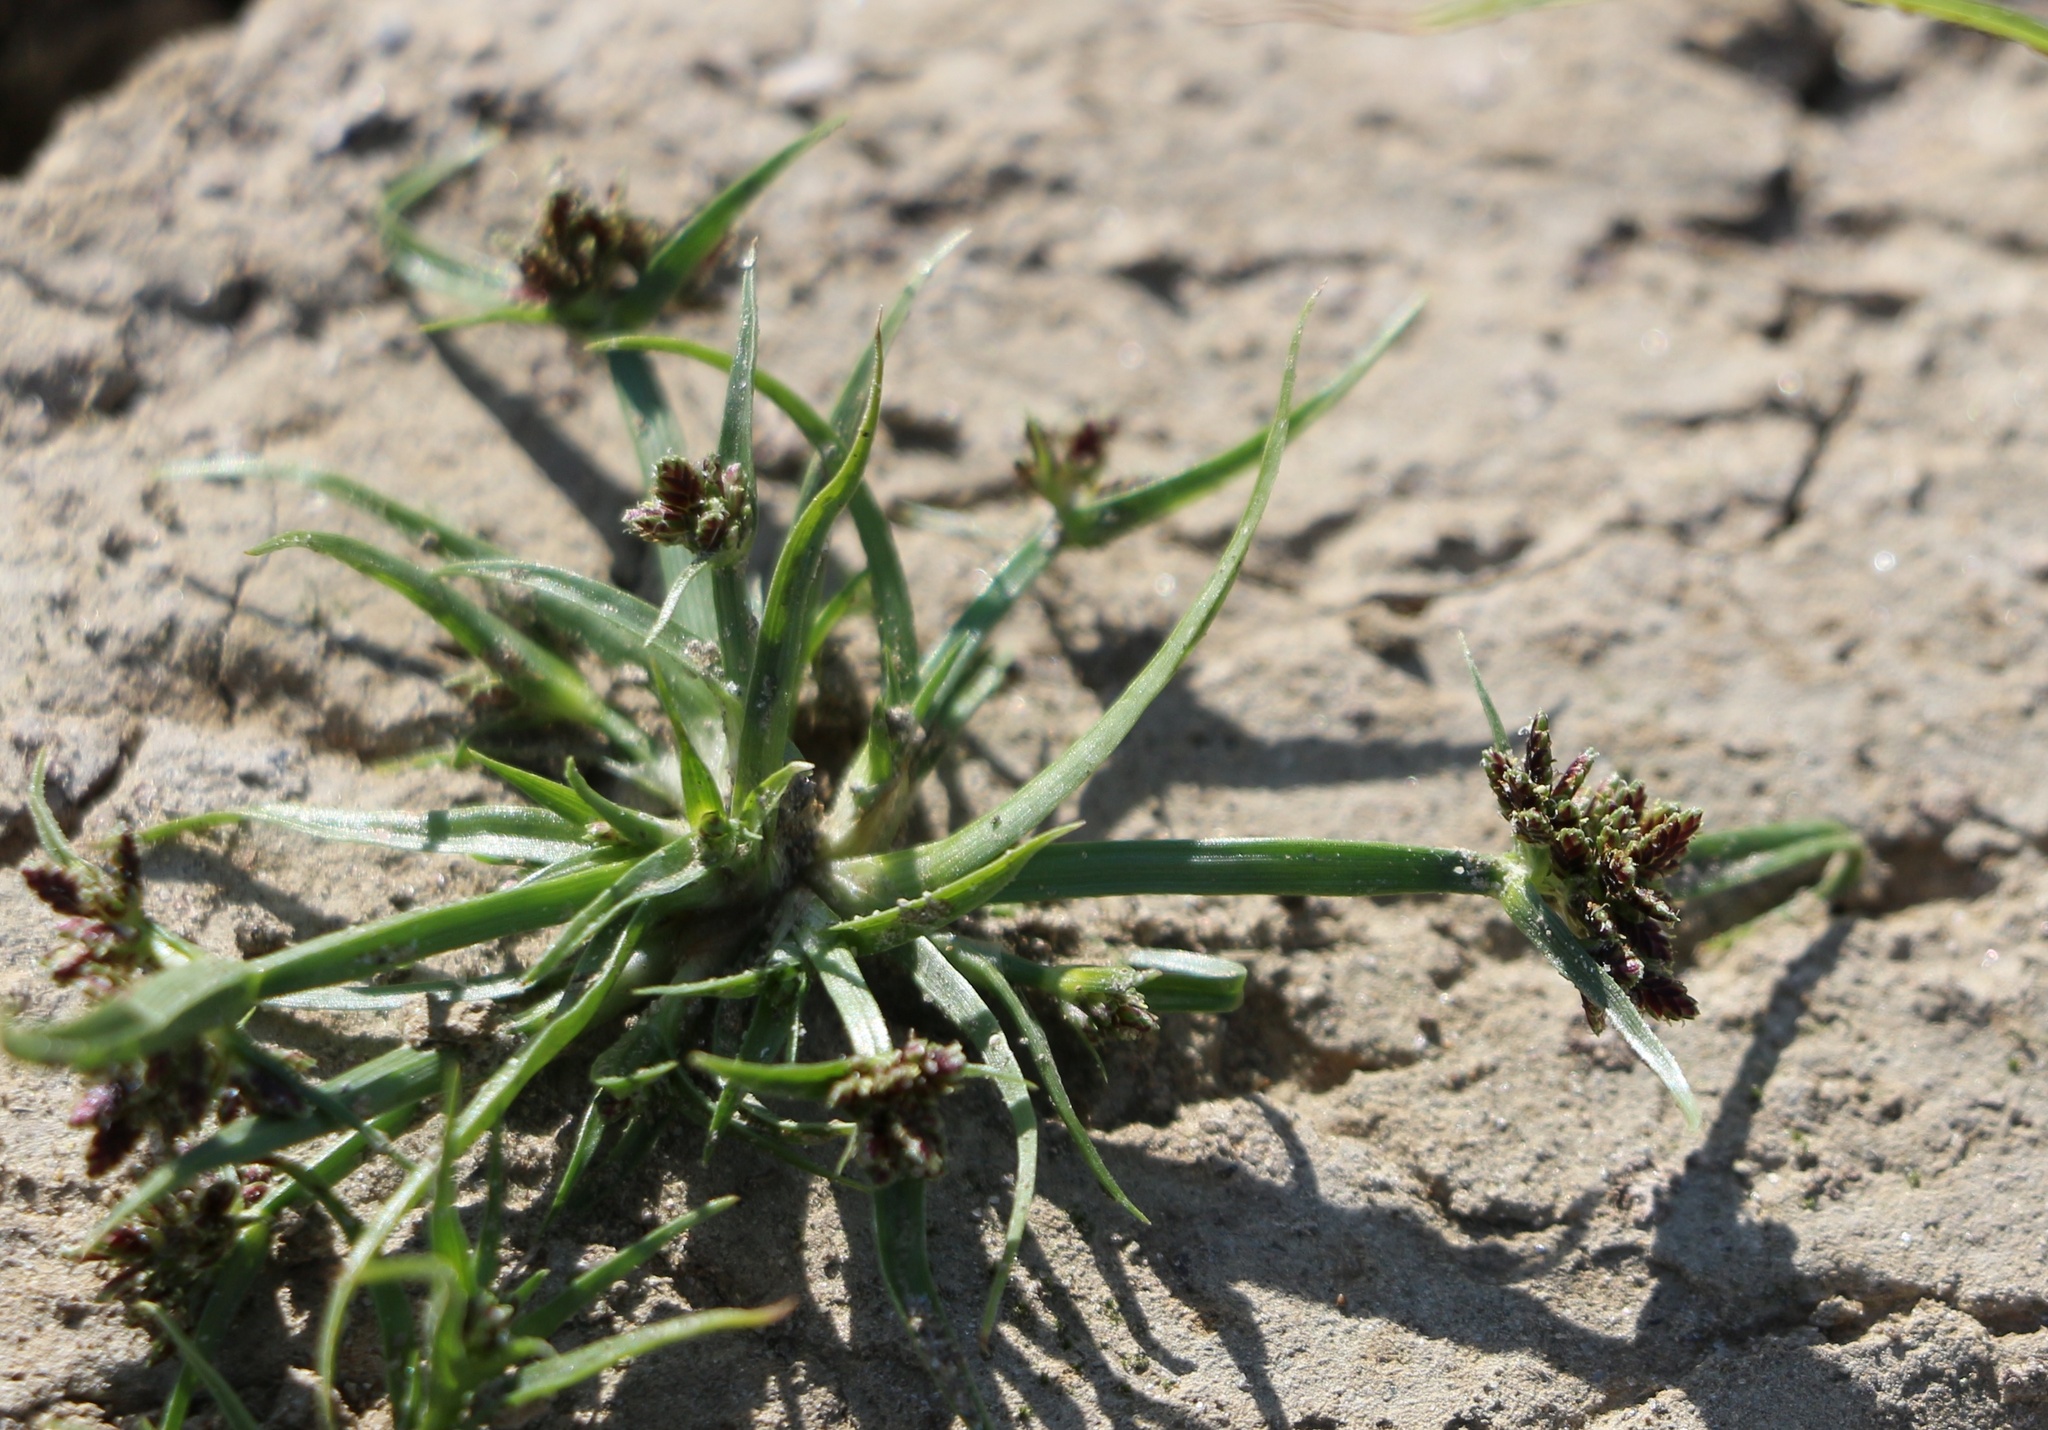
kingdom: Plantae
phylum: Tracheophyta
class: Liliopsida
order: Poales
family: Cyperaceae
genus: Cyperus
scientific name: Cyperus fuscus
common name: Brown galingale
